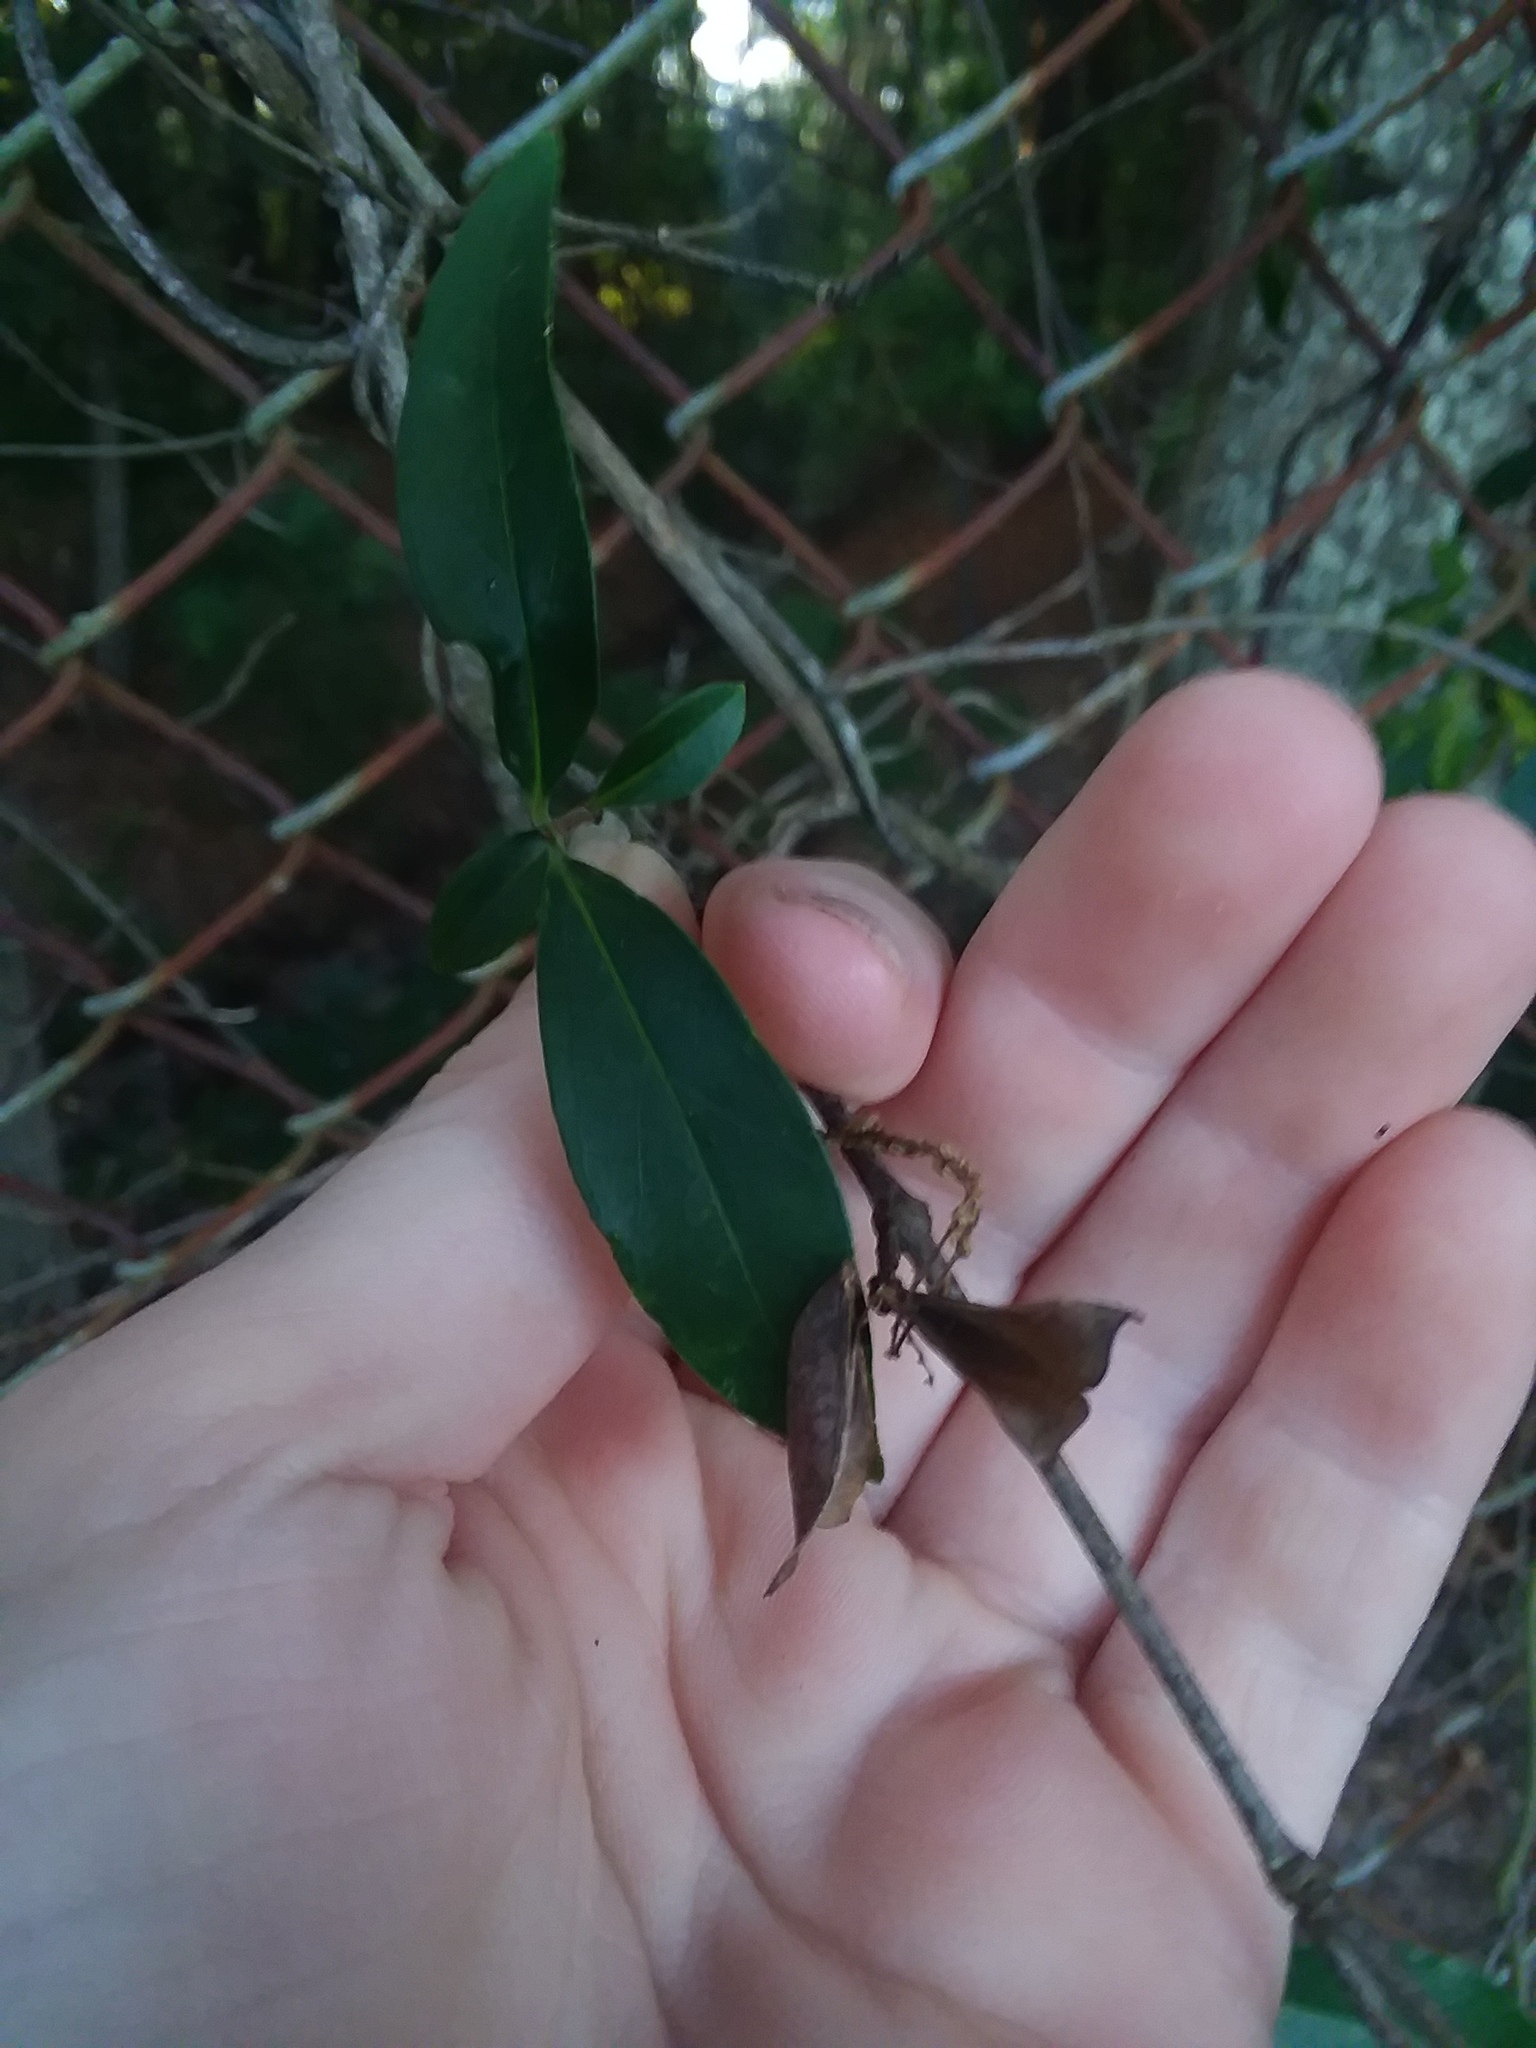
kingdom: Plantae
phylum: Tracheophyta
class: Magnoliopsida
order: Gentianales
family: Gelsemiaceae
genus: Gelsemium
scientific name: Gelsemium sempervirens
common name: Carolina-jasmine
